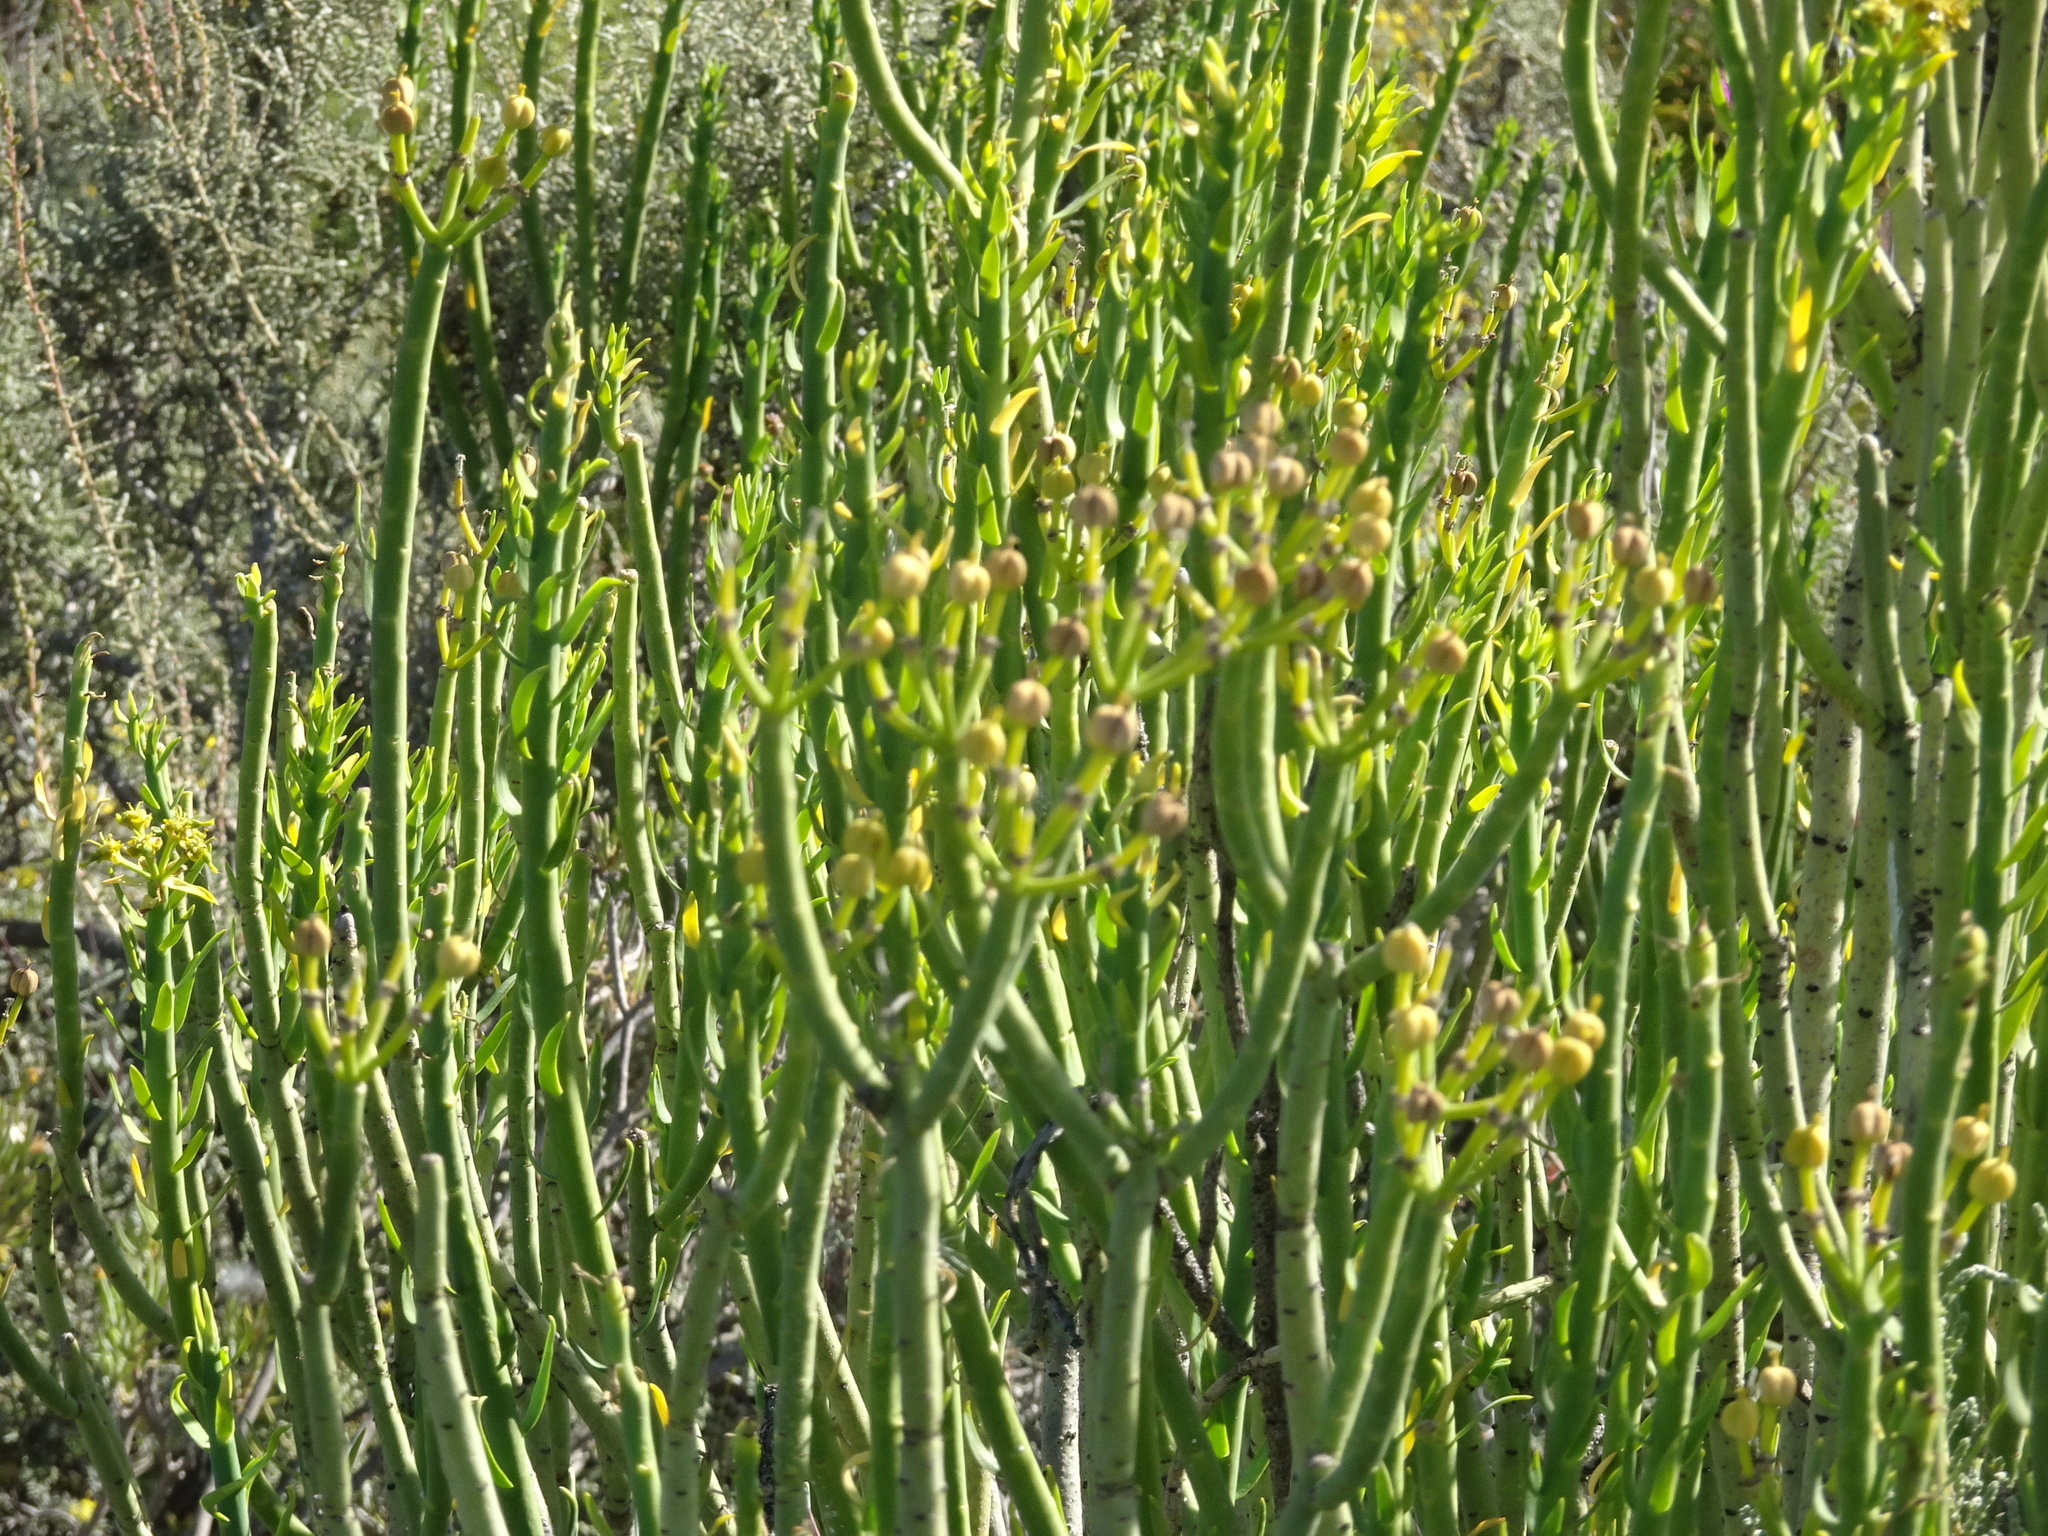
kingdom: Plantae
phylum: Tracheophyta
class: Magnoliopsida
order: Malpighiales
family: Euphorbiaceae
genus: Euphorbia
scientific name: Euphorbia mauritanica
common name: Jackal's-food
